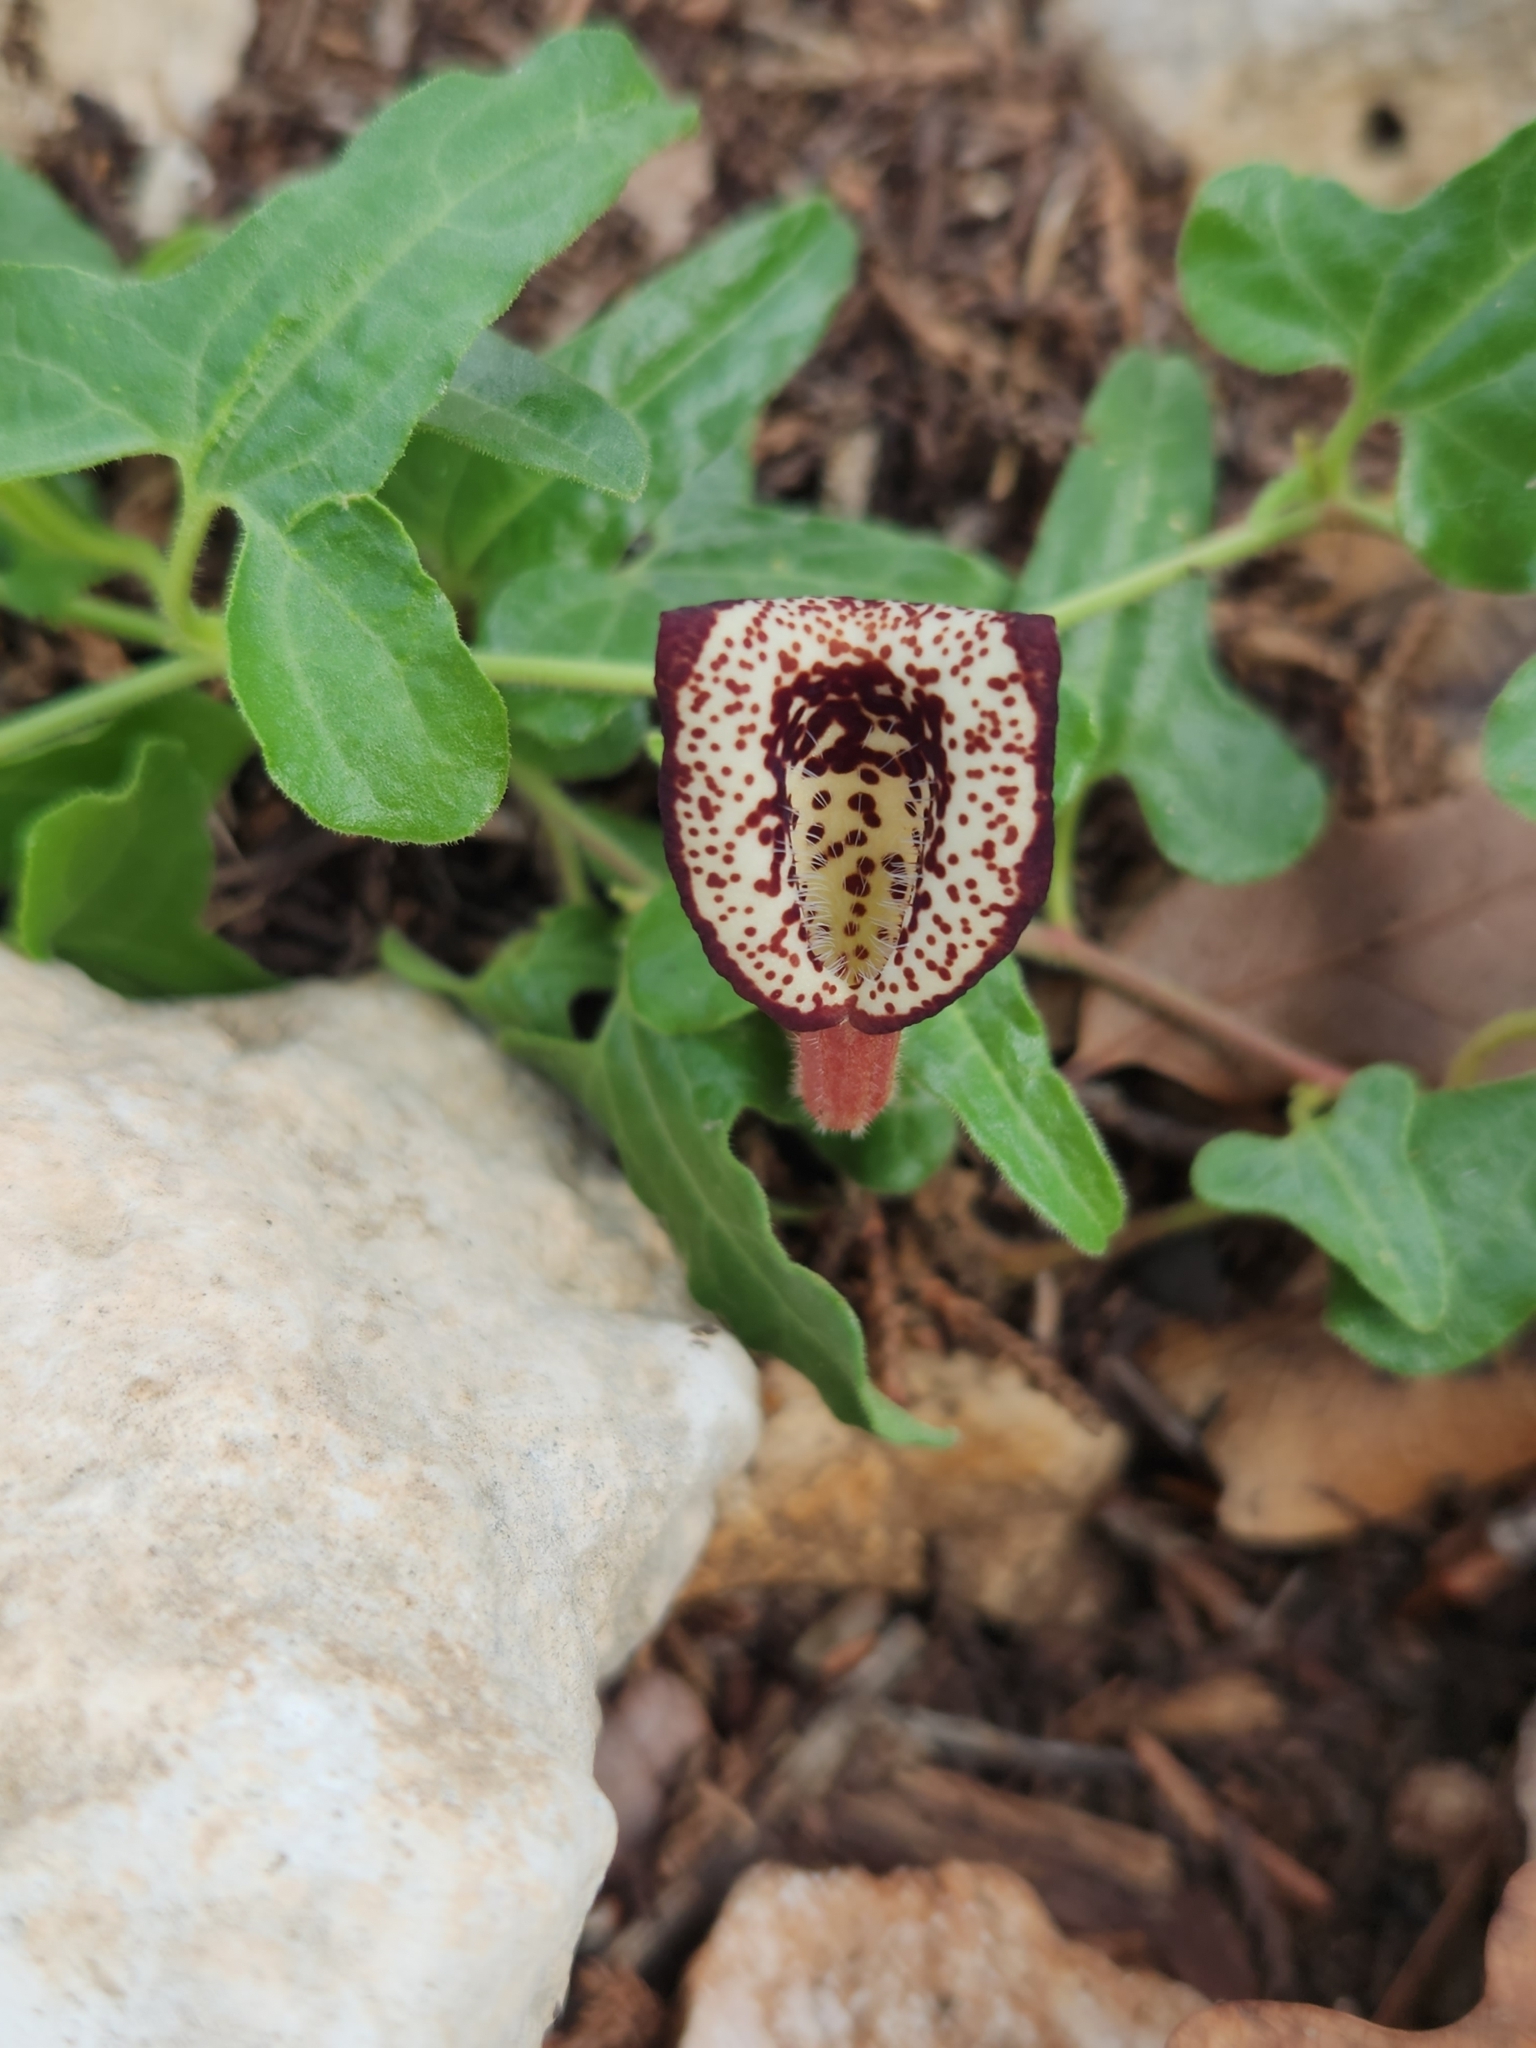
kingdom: Plantae
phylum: Tracheophyta
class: Magnoliopsida
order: Piperales
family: Aristolochiaceae
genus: Aristolochia
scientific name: Aristolochia coryi
